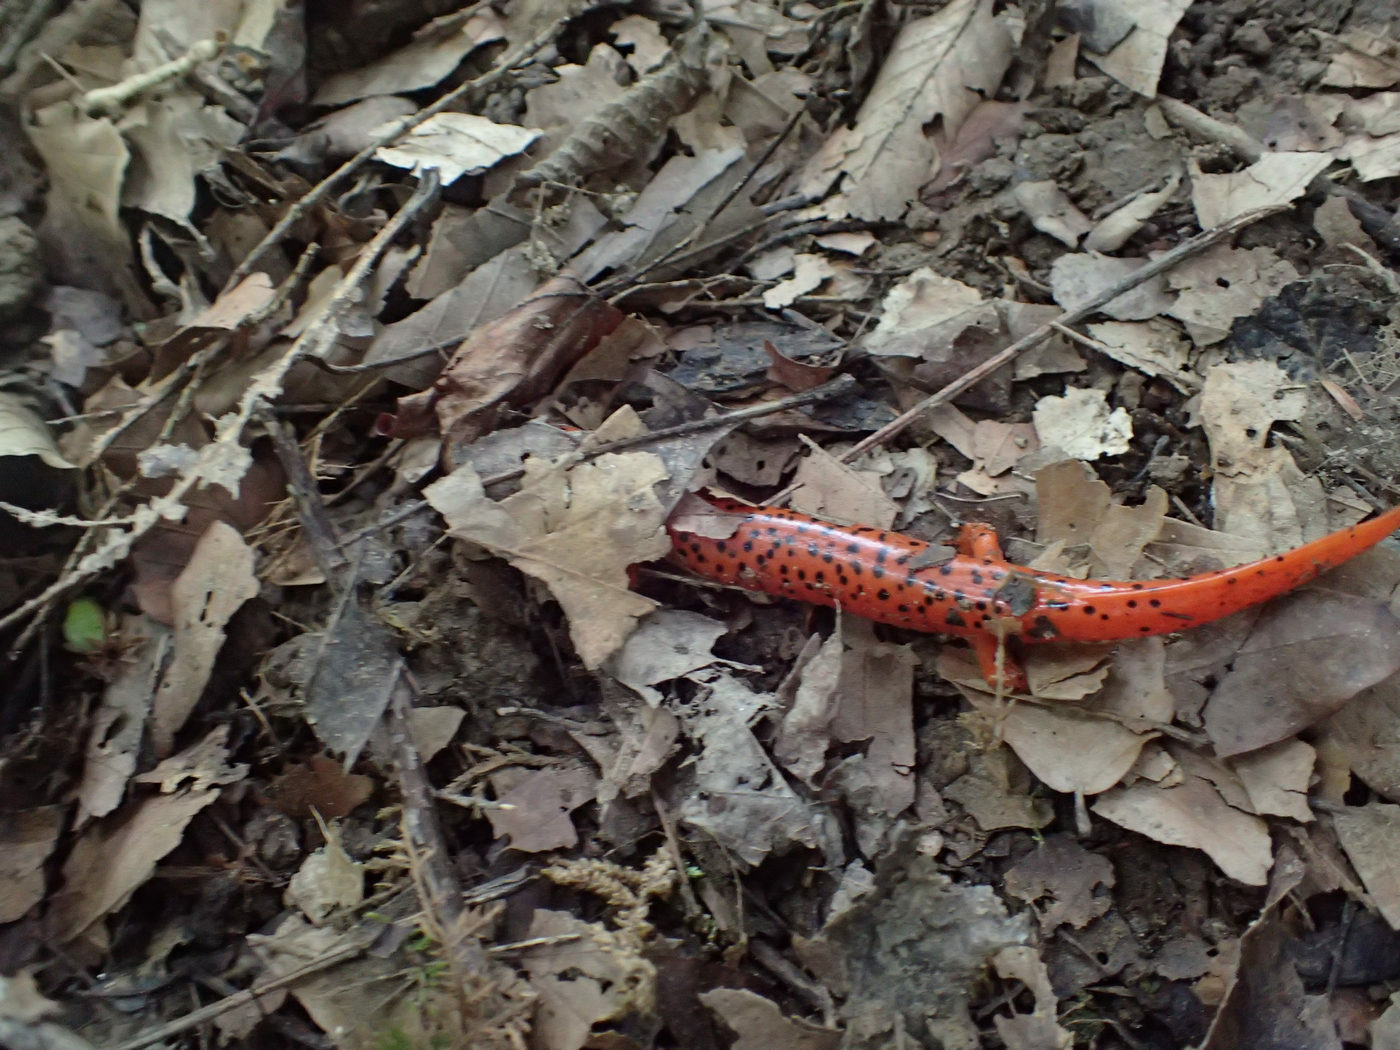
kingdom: Animalia
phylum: Chordata
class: Amphibia
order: Caudata
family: Plethodontidae
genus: Pseudotriton
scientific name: Pseudotriton ruber
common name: Red salamander
